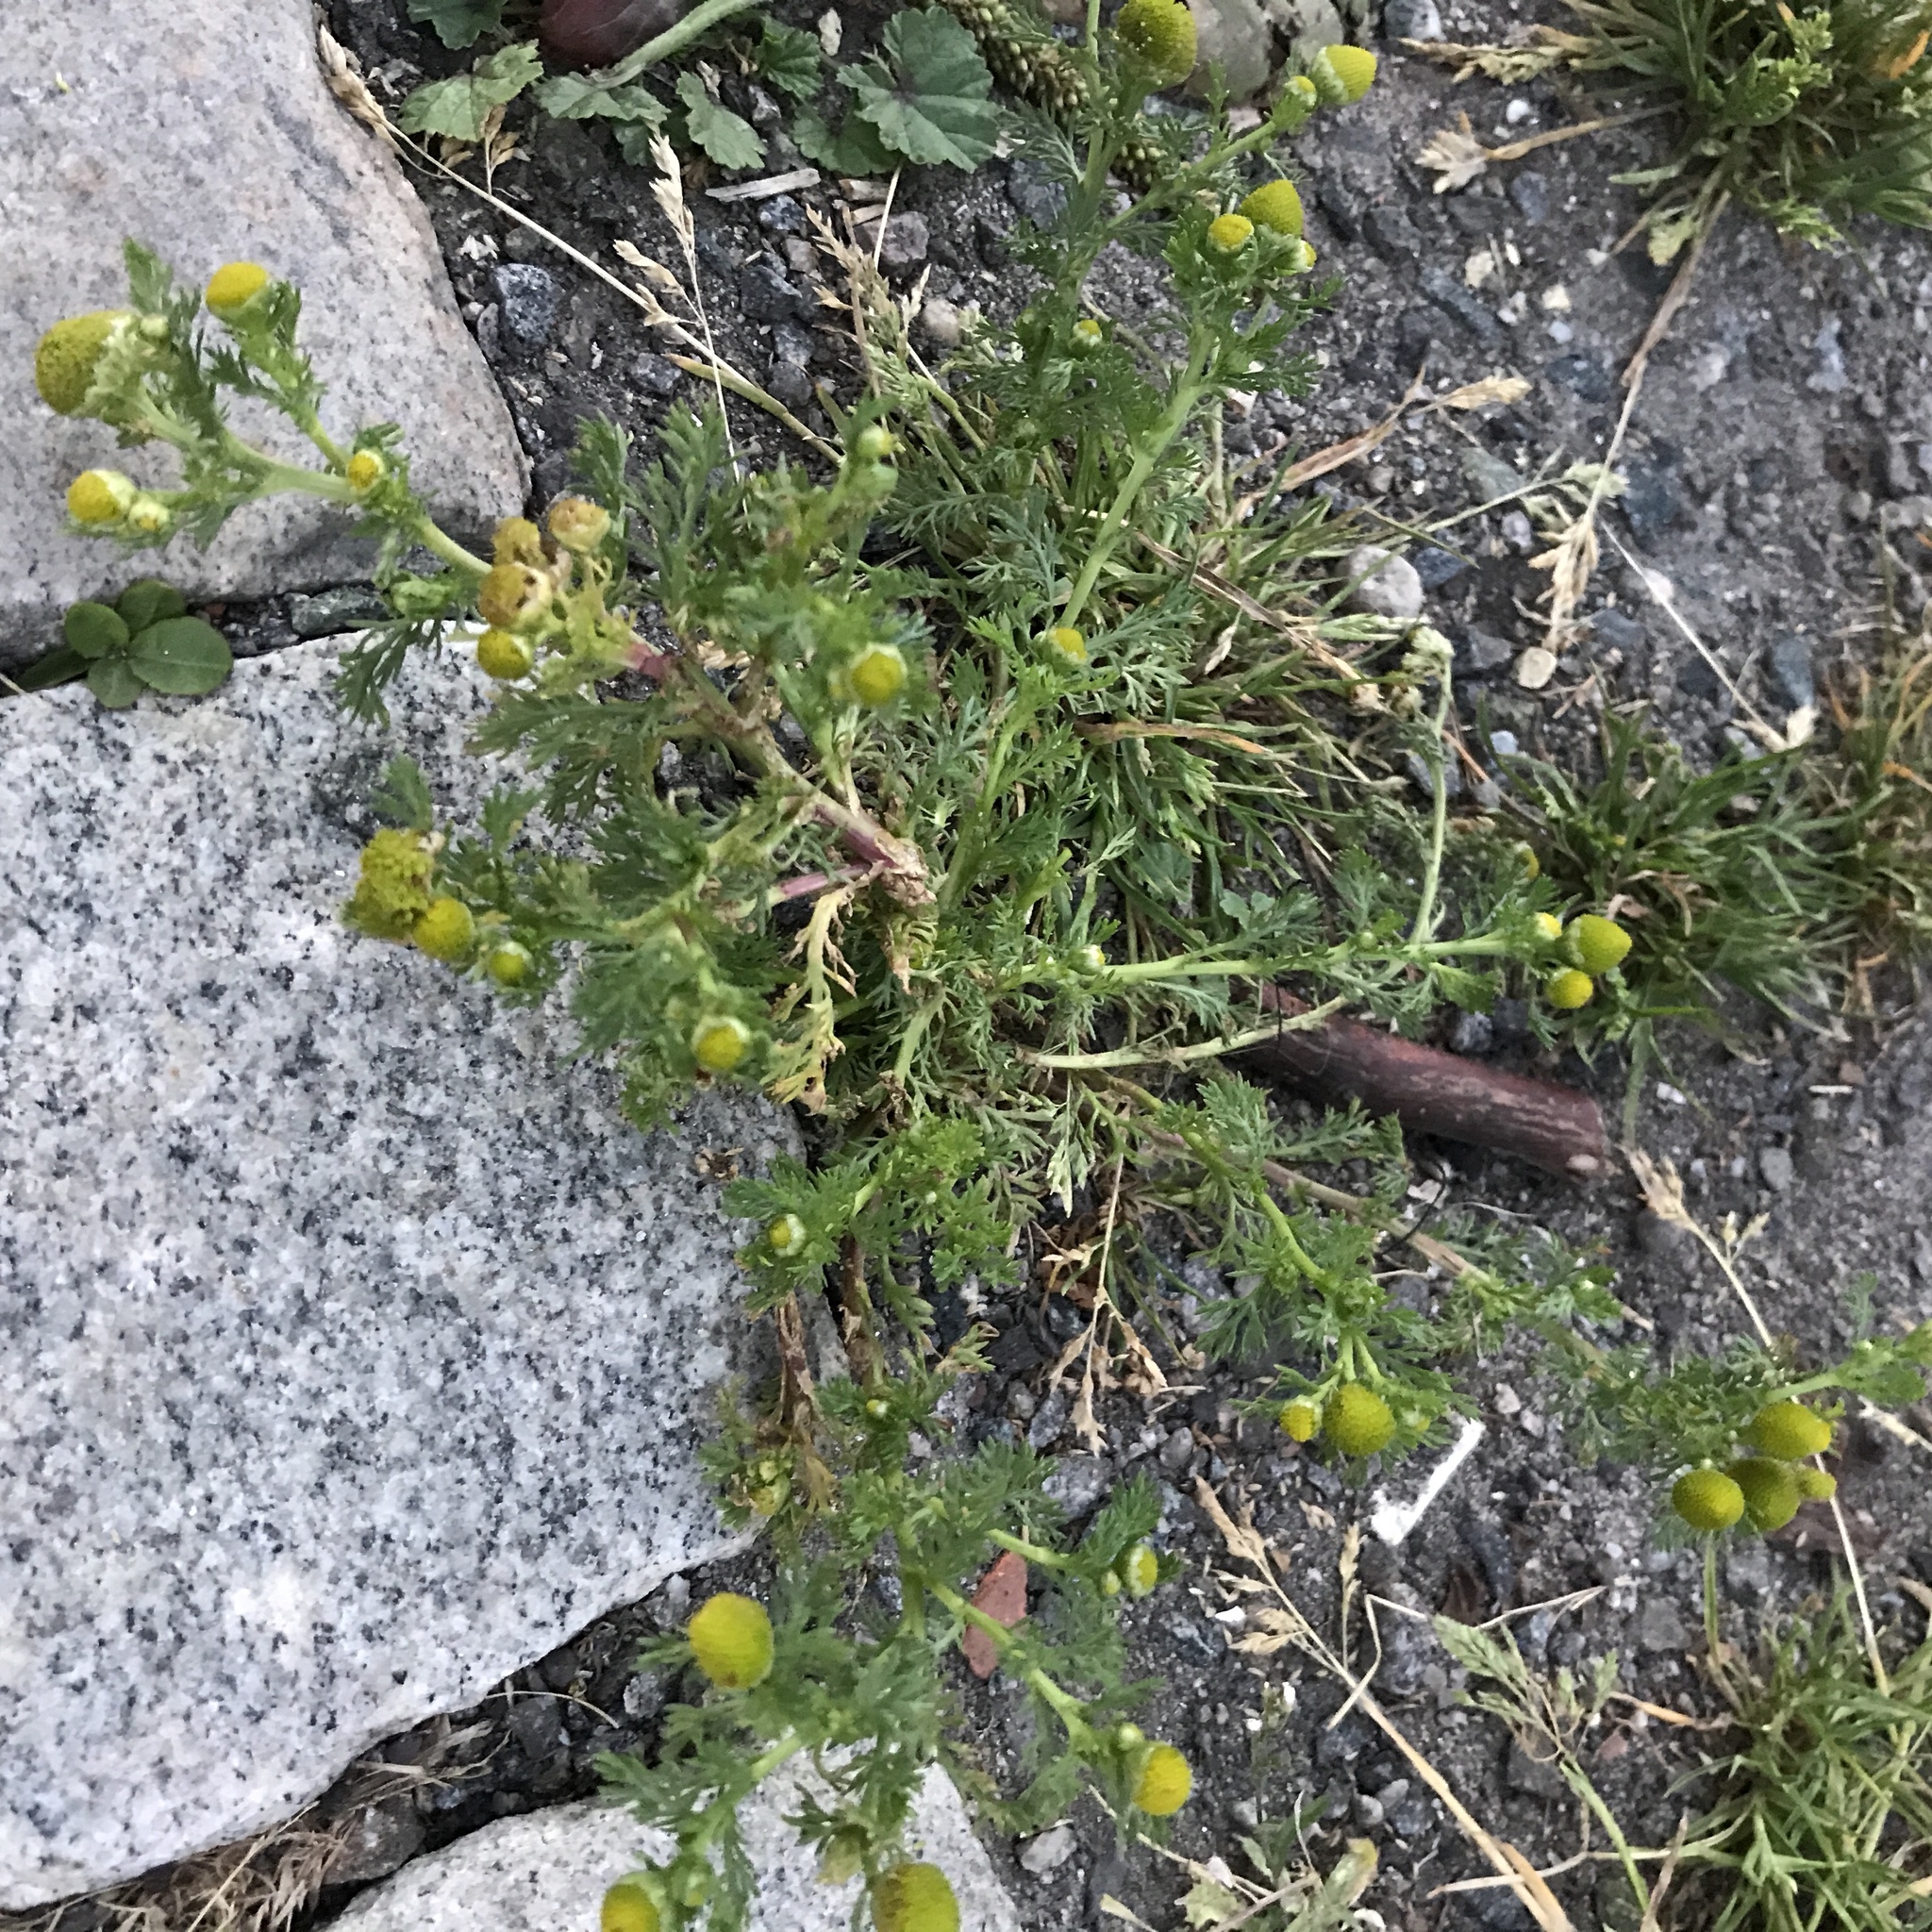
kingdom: Plantae
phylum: Tracheophyta
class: Magnoliopsida
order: Asterales
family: Asteraceae
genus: Matricaria
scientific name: Matricaria discoidea
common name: Disc mayweed
